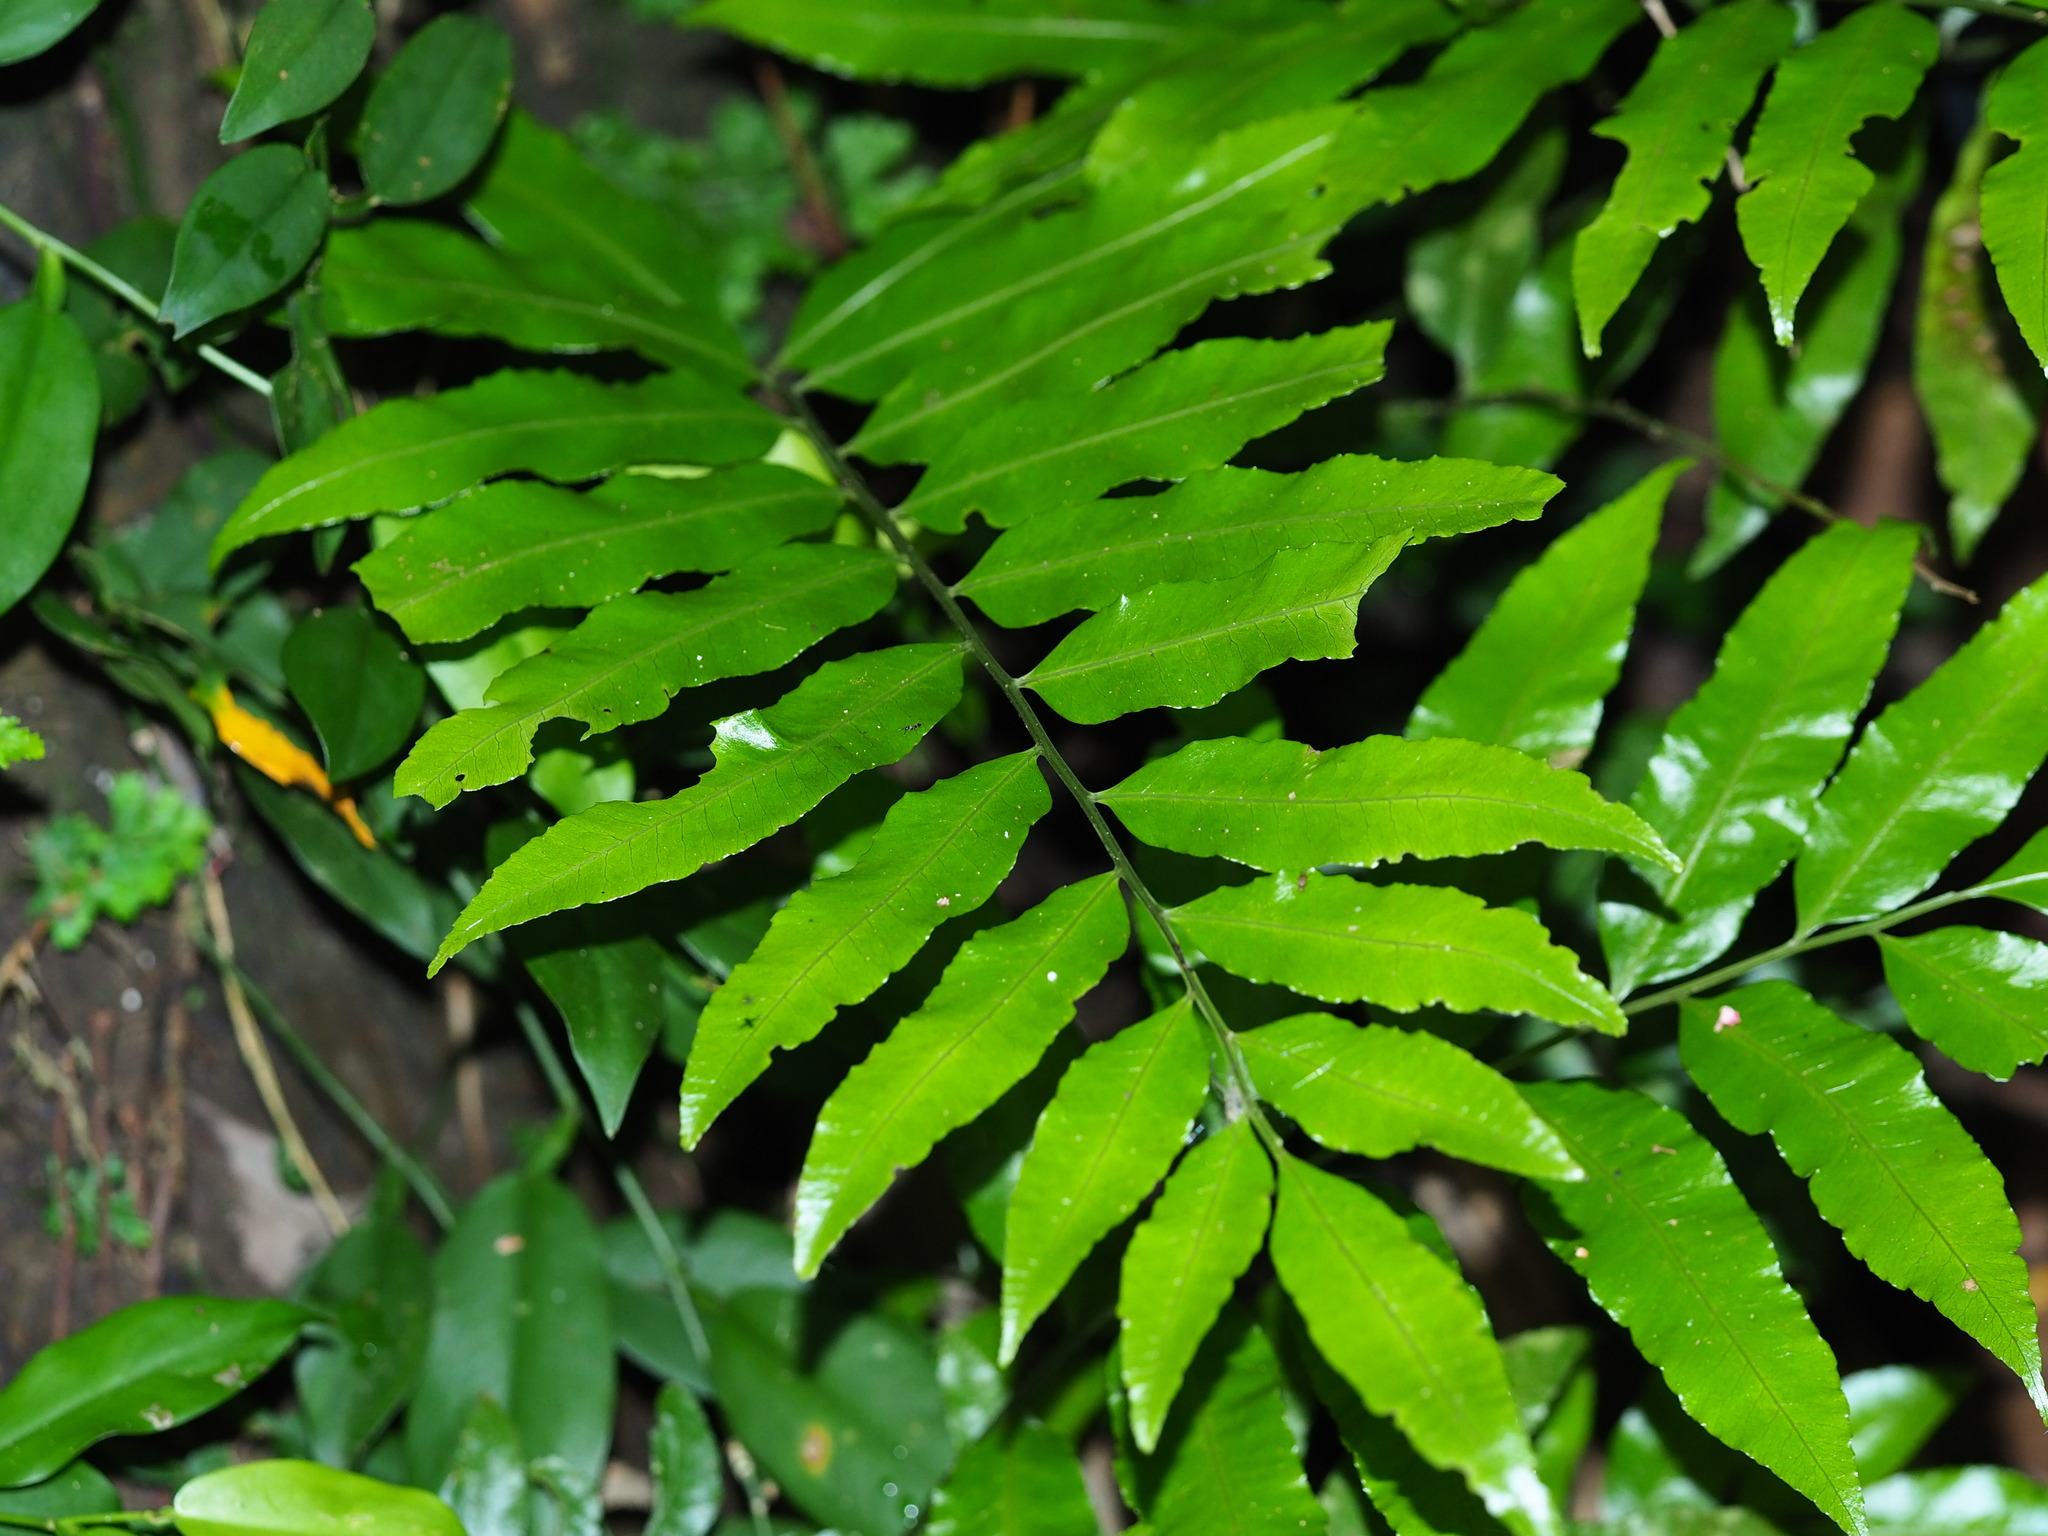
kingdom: Plantae
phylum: Tracheophyta
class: Polypodiopsida
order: Polypodiales
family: Dryopteridaceae
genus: Bolbitis
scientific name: Bolbitis scalpturata
